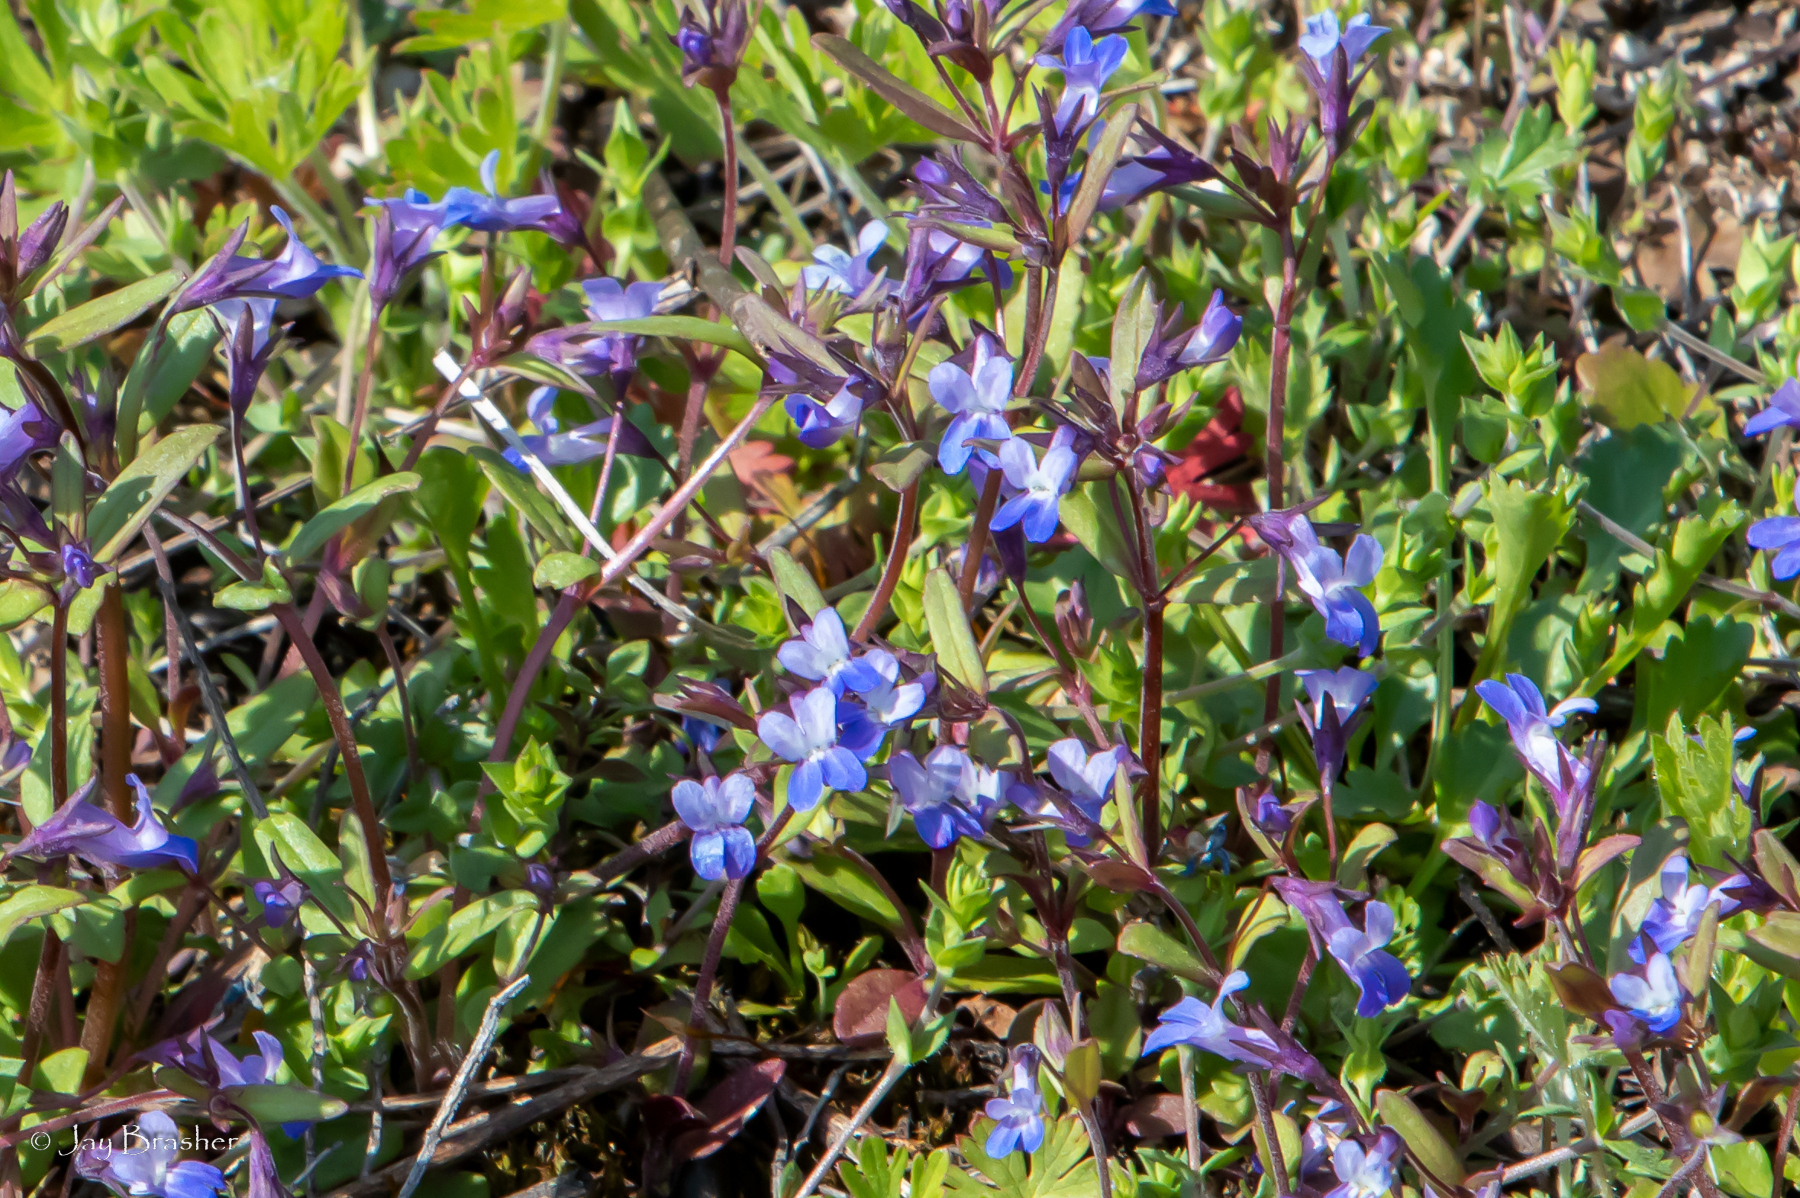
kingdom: Plantae
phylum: Tracheophyta
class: Magnoliopsida
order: Lamiales
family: Plantaginaceae
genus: Collinsia
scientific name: Collinsia parviflora
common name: Blue-lips
